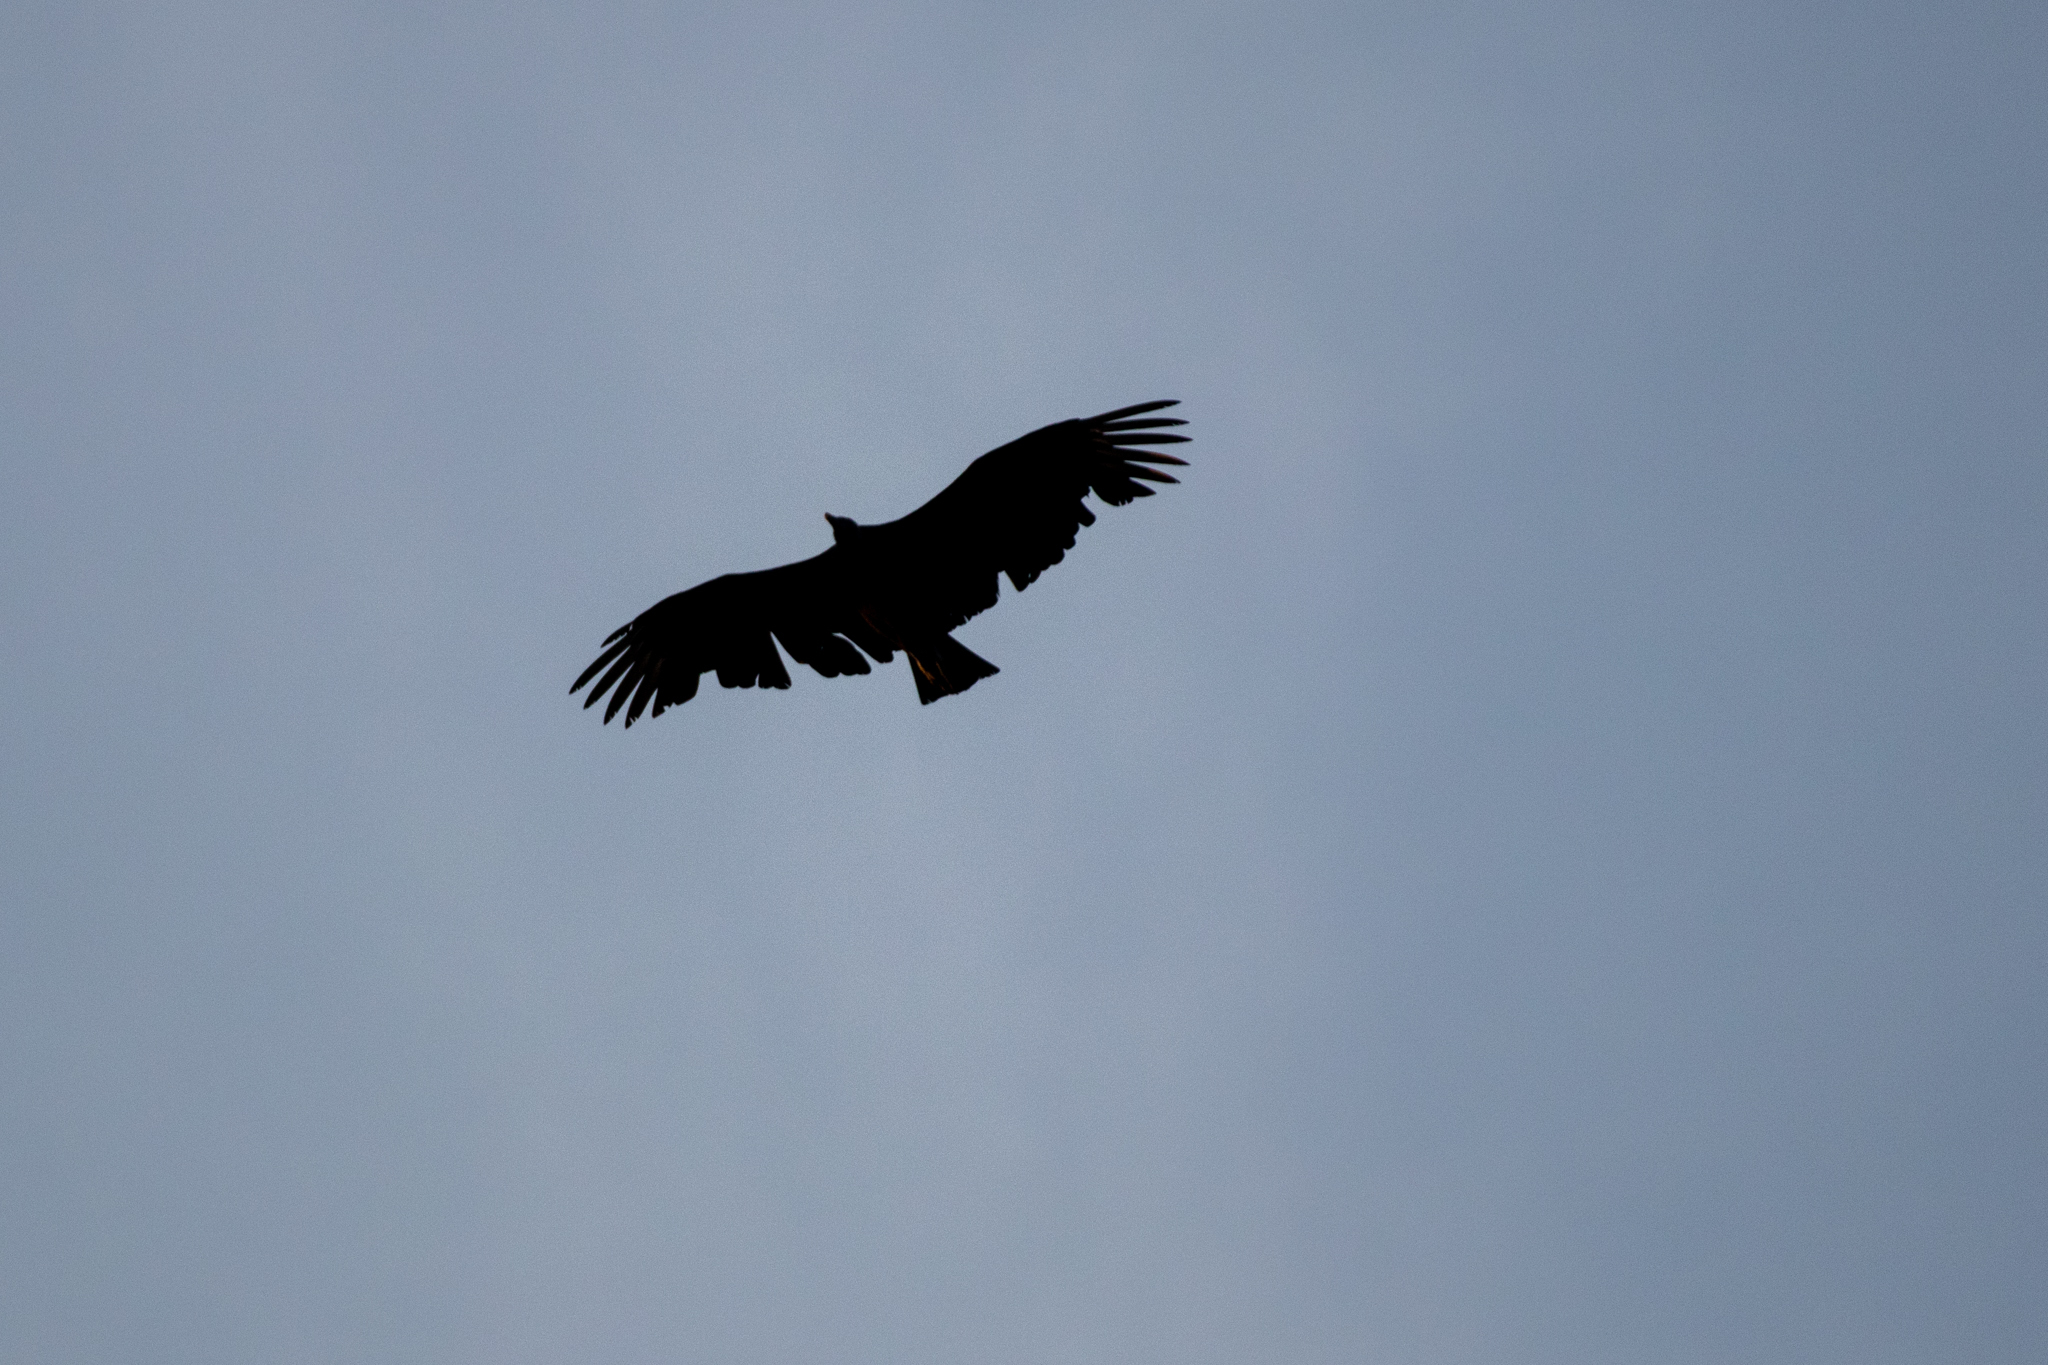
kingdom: Animalia
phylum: Chordata
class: Aves
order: Accipitriformes
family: Cathartidae
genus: Cathartes
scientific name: Cathartes aura
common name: Turkey vulture
